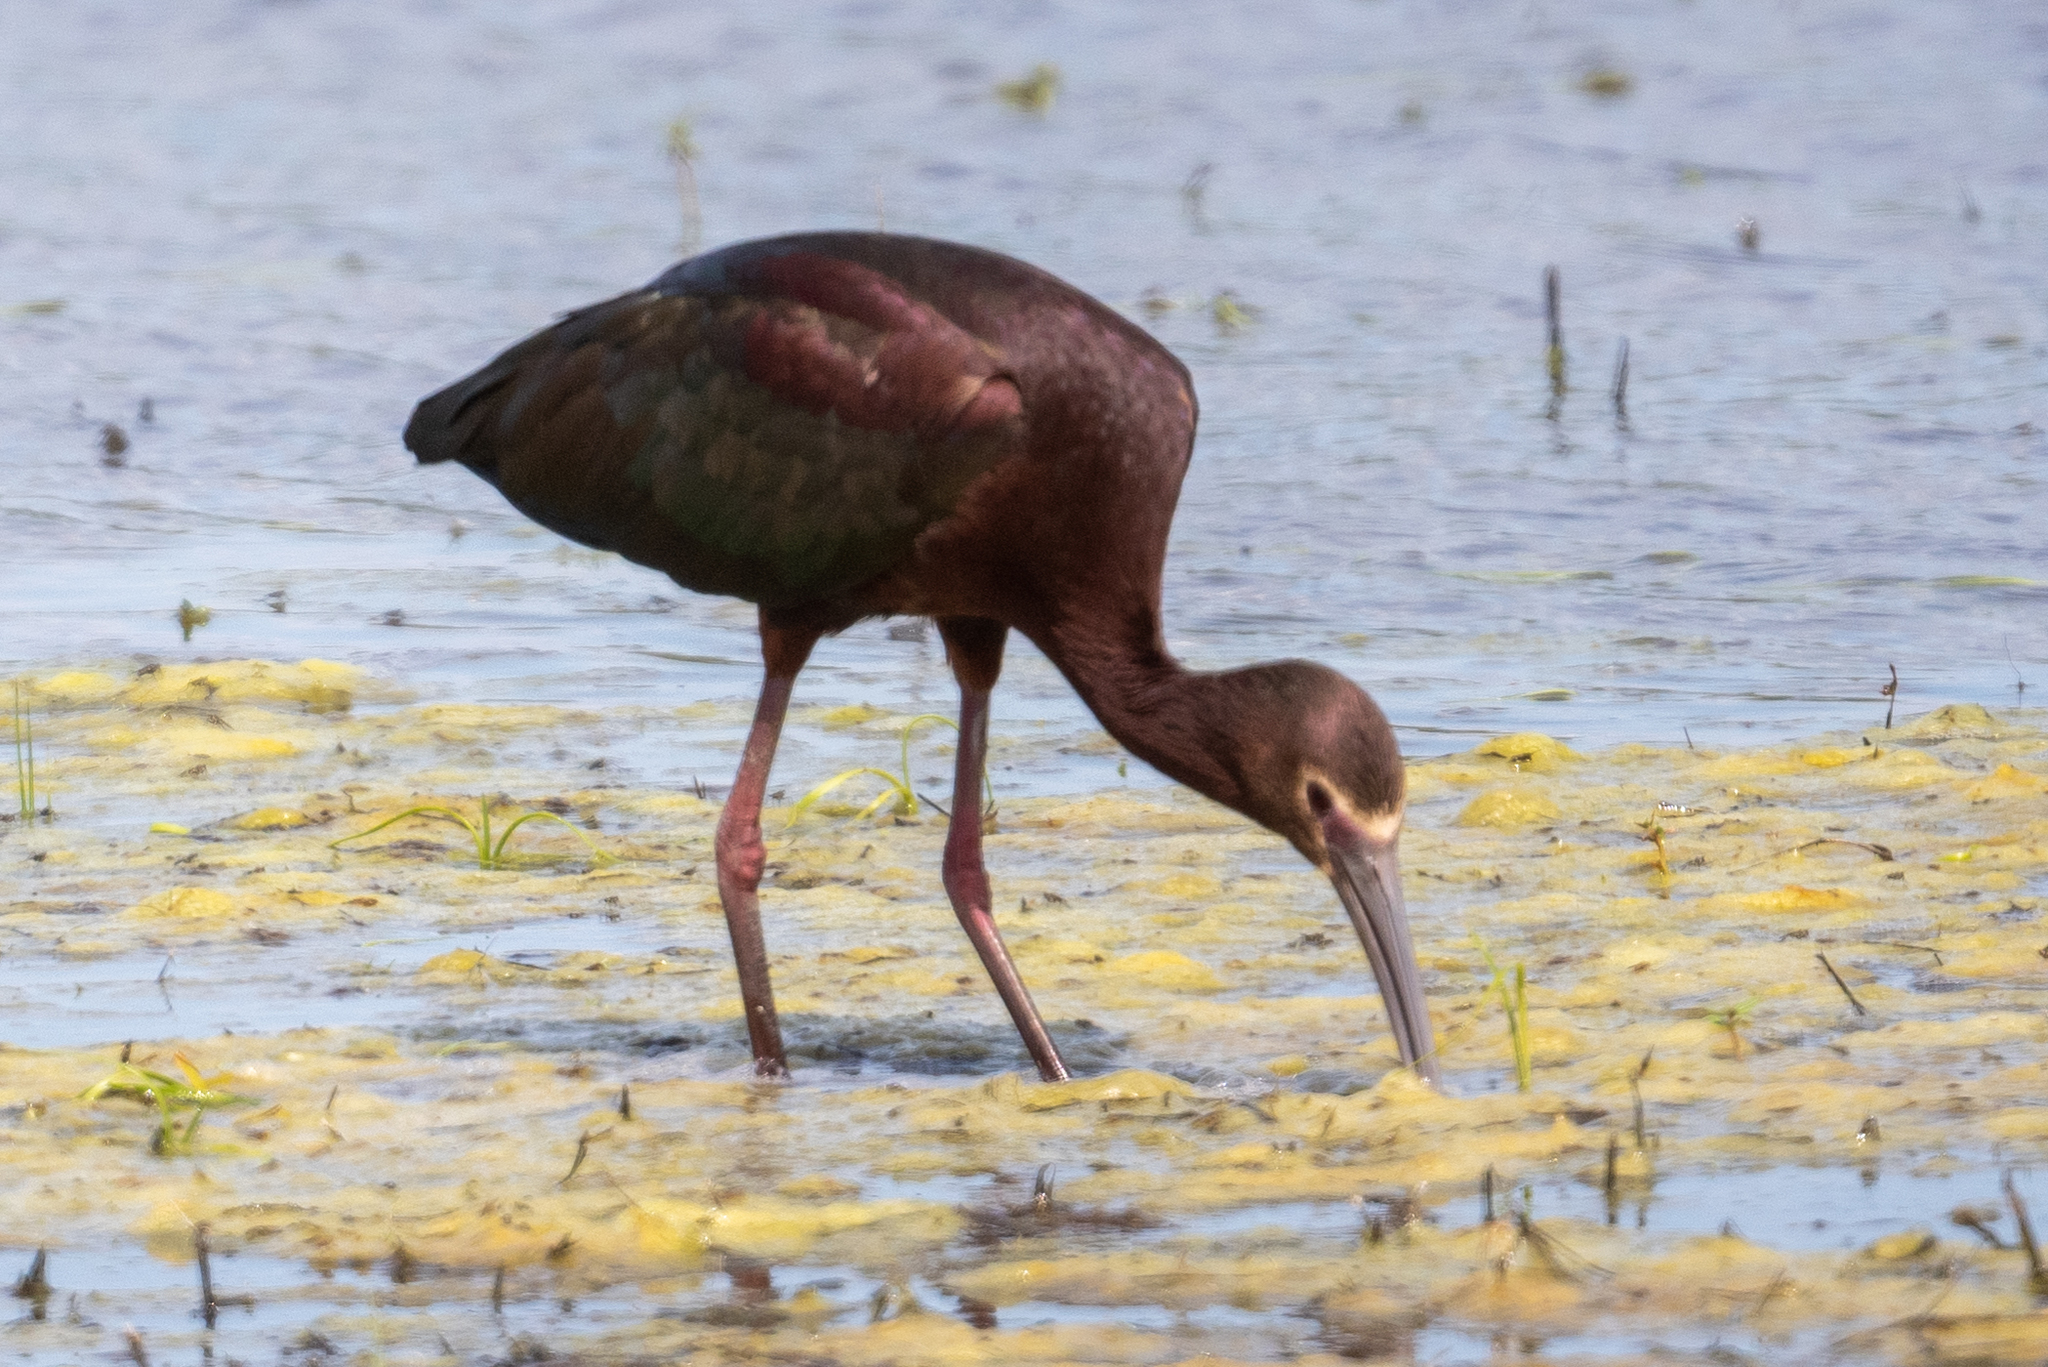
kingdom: Animalia
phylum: Chordata
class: Aves
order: Pelecaniformes
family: Threskiornithidae
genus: Plegadis
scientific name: Plegadis chihi
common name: White-faced ibis
